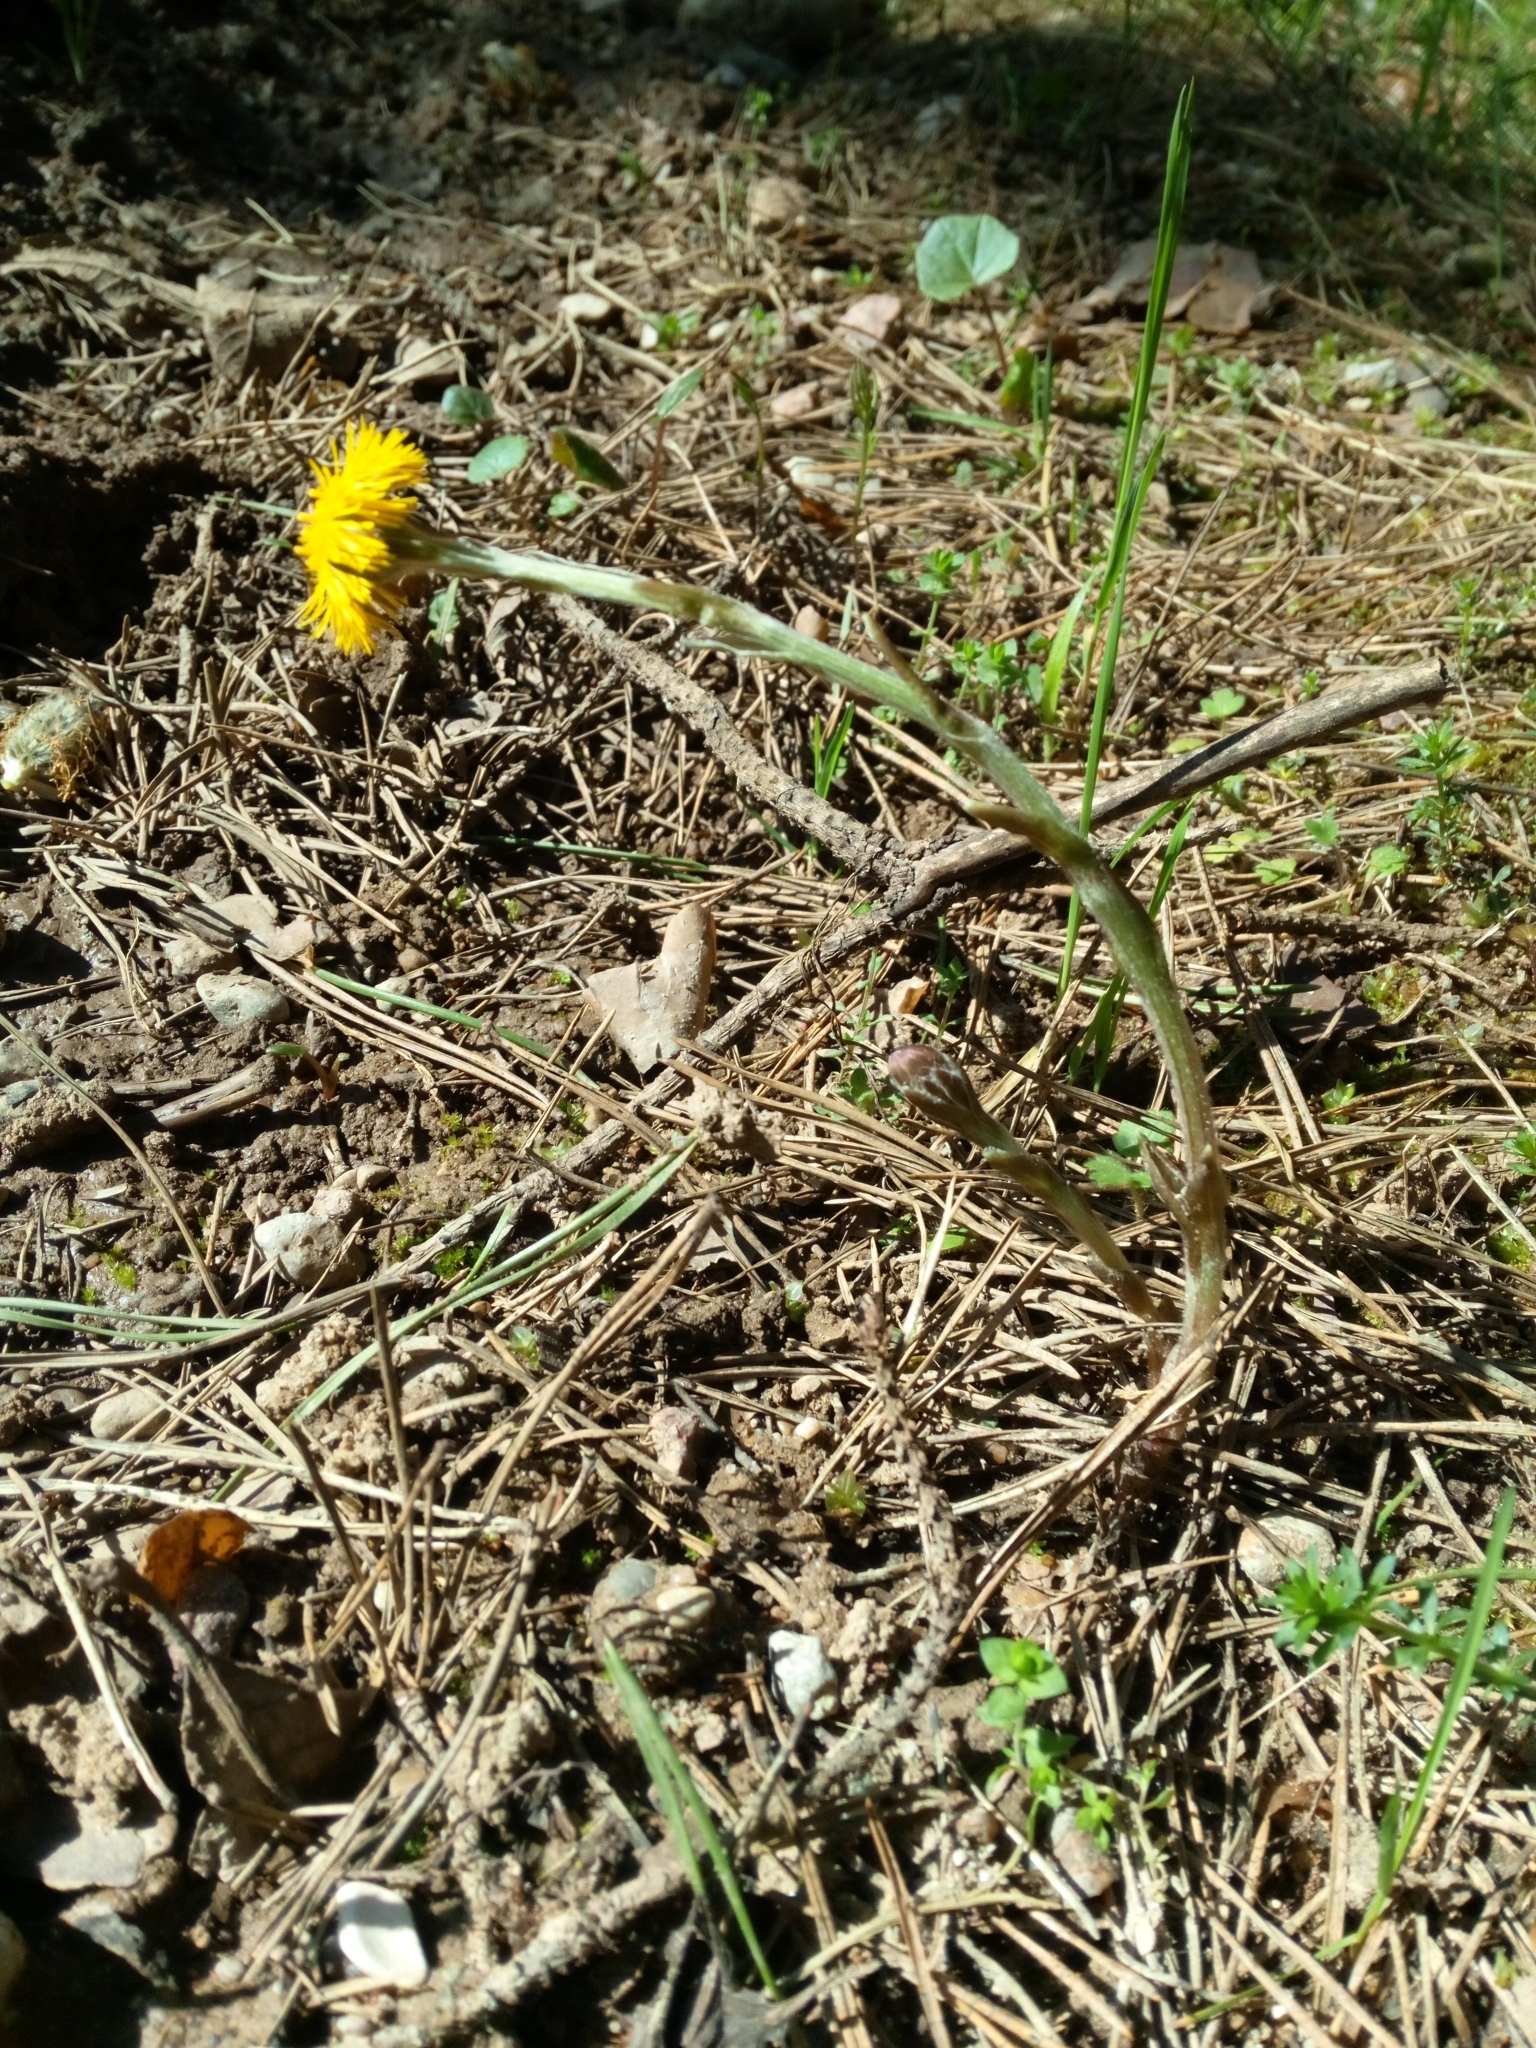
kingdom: Plantae
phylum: Tracheophyta
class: Magnoliopsida
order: Asterales
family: Asteraceae
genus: Tussilago
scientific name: Tussilago farfara
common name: Coltsfoot
